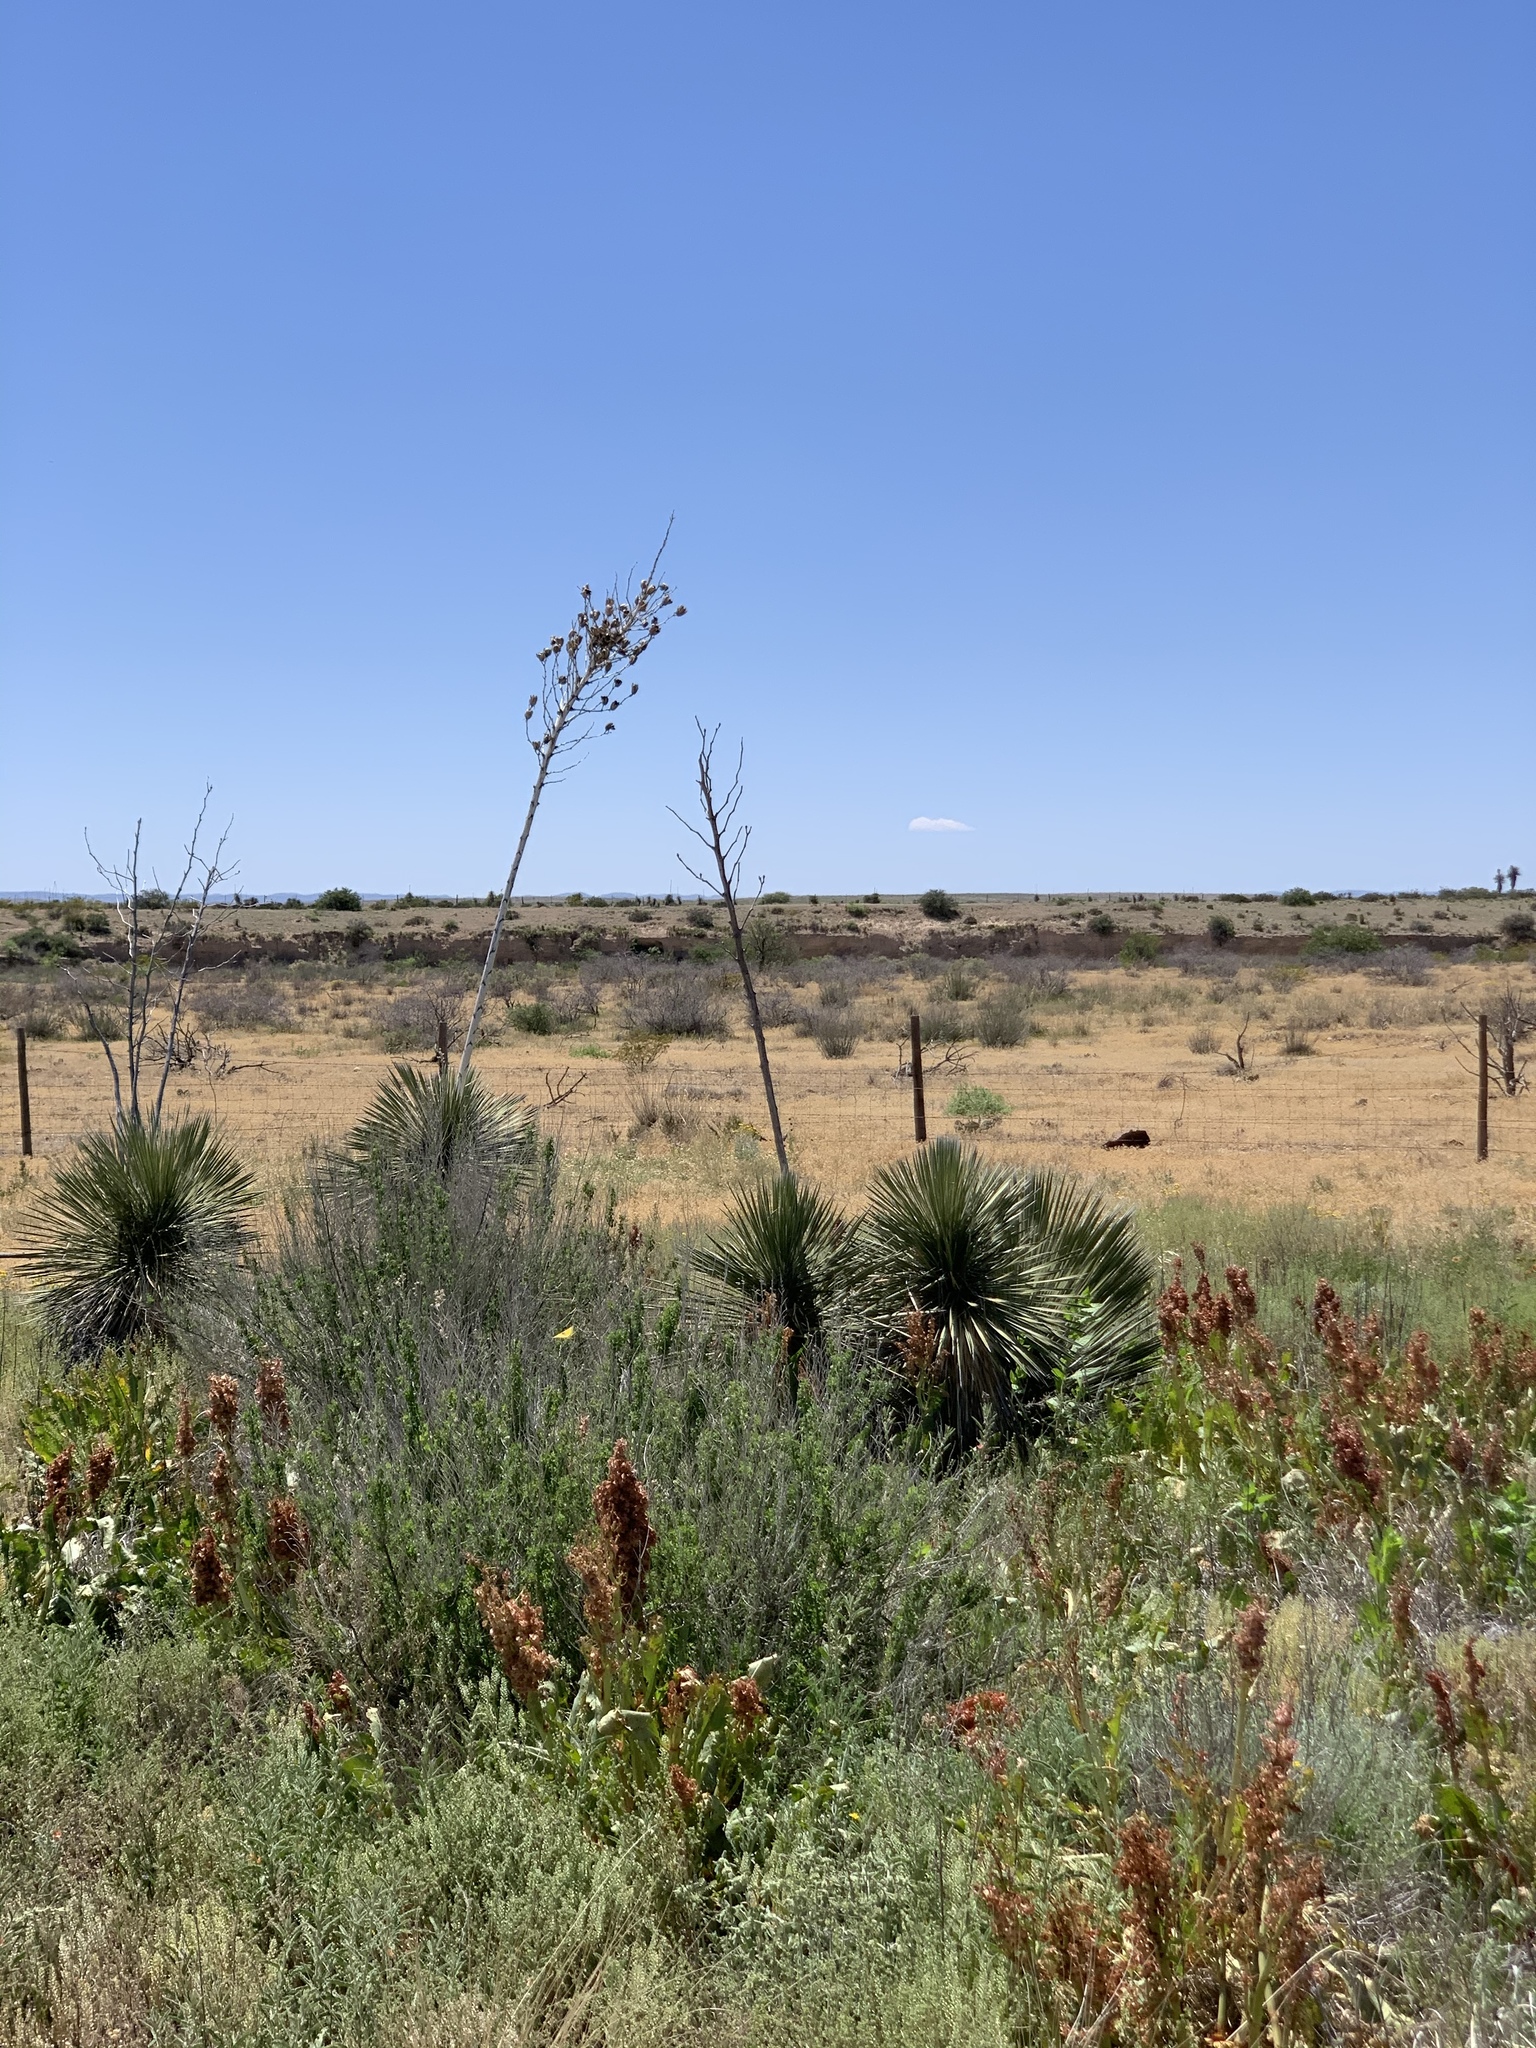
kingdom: Plantae
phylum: Tracheophyta
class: Liliopsida
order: Asparagales
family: Asparagaceae
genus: Yucca
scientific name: Yucca elata
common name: Palmella
